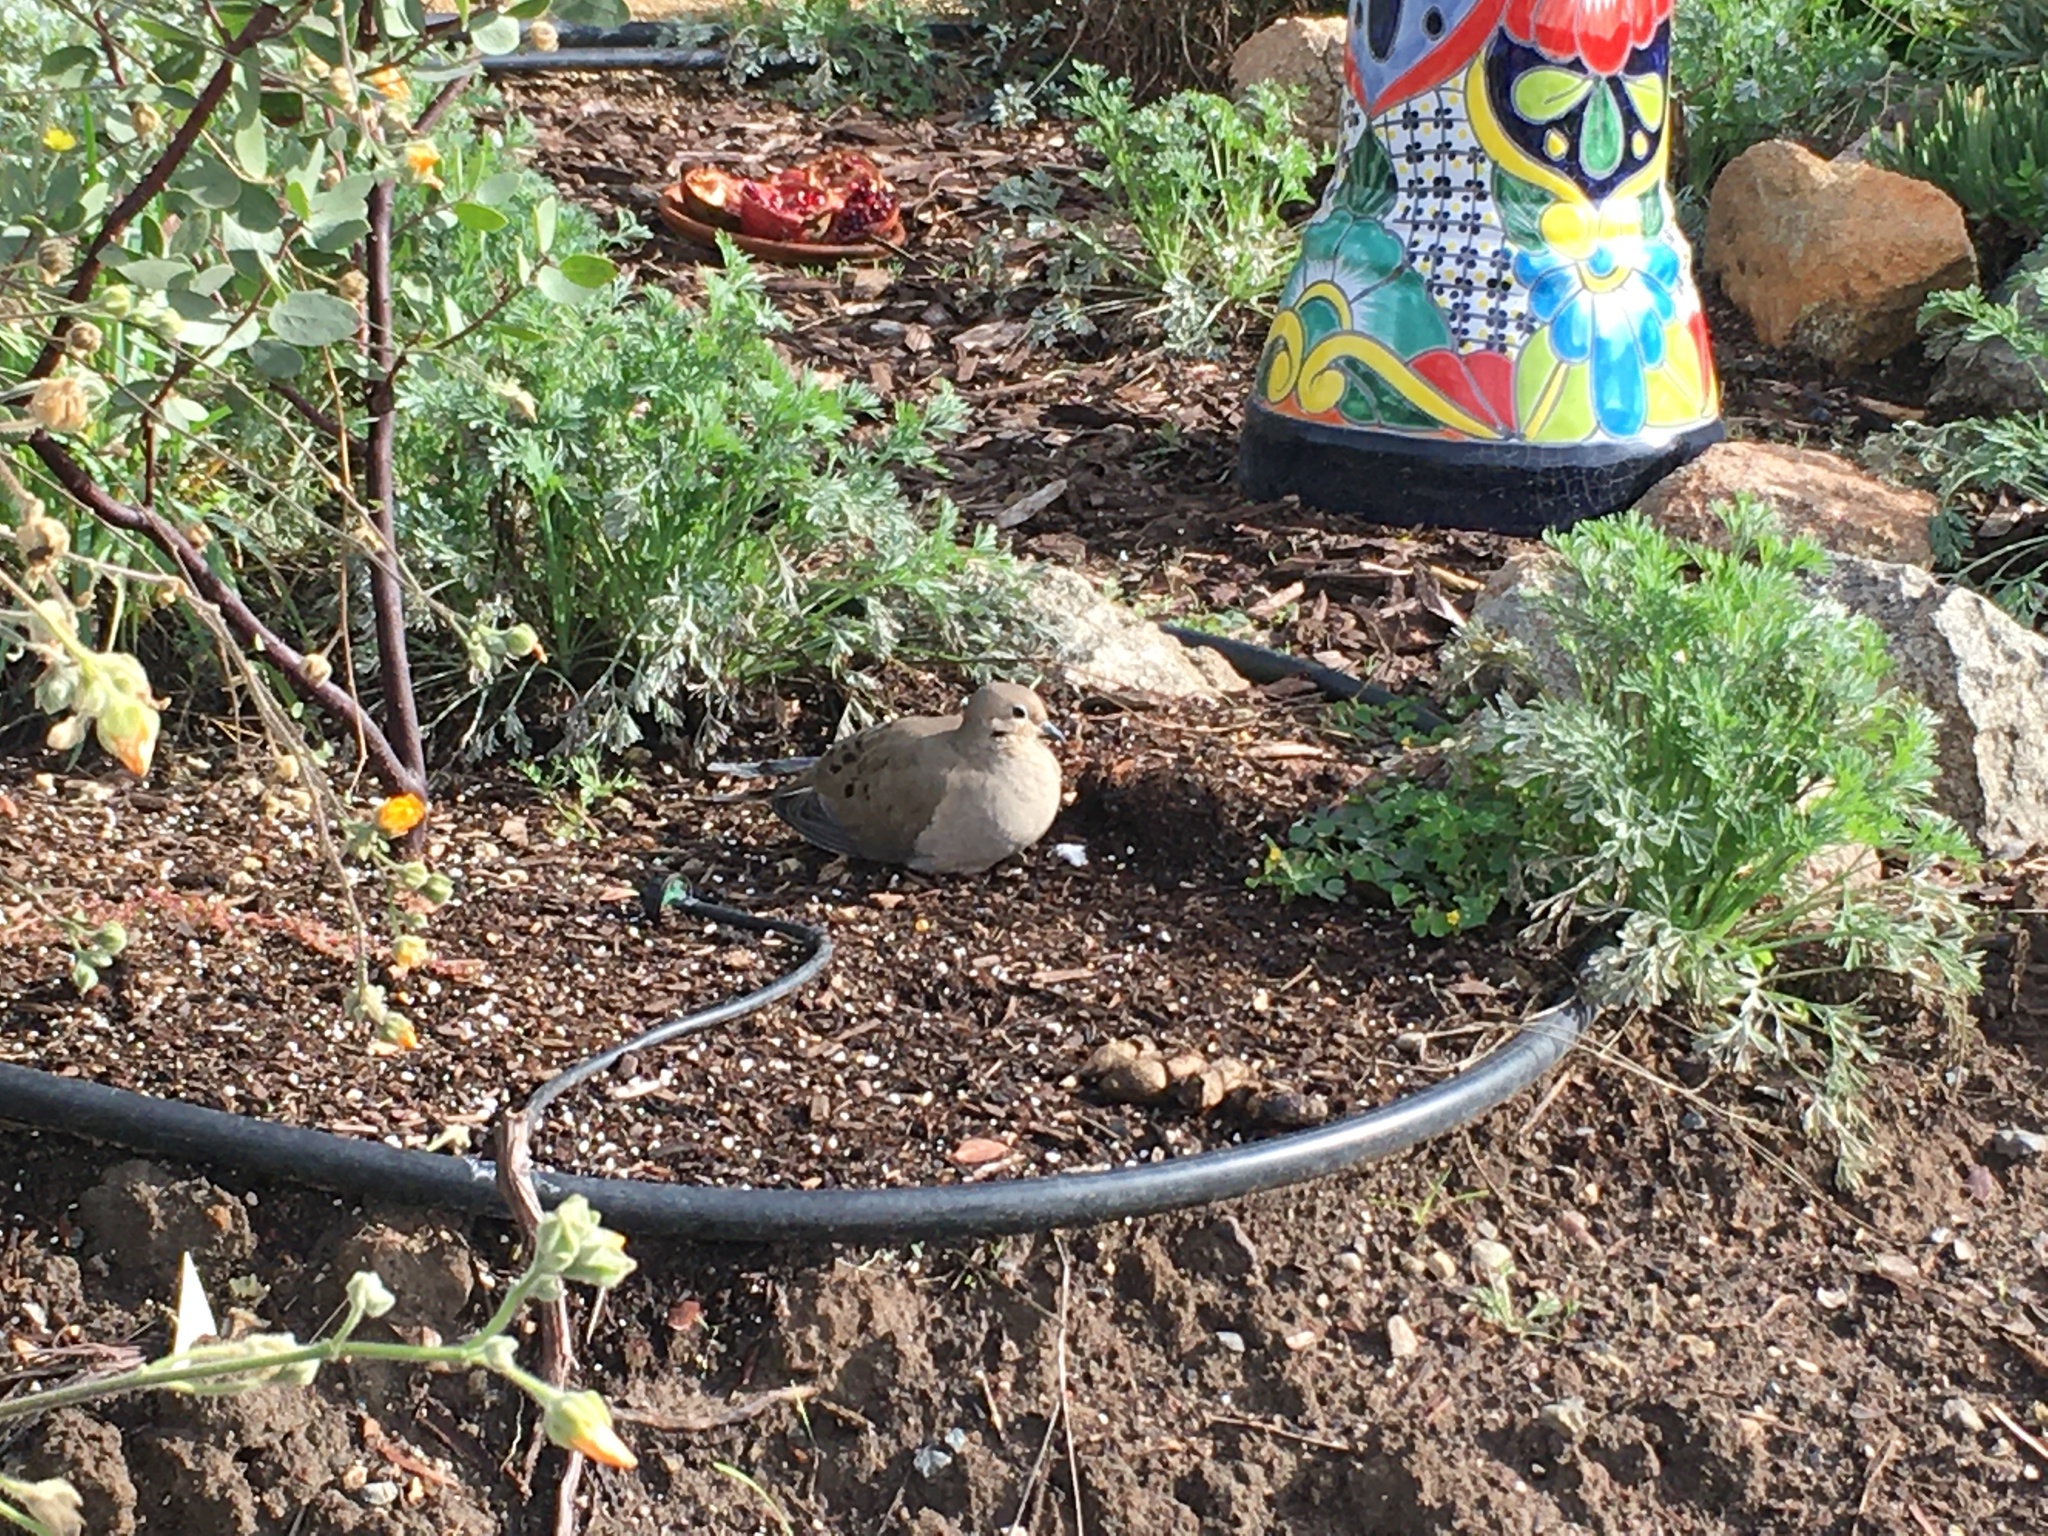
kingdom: Animalia
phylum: Chordata
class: Aves
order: Columbiformes
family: Columbidae
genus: Zenaida
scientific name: Zenaida macroura
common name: Mourning dove
